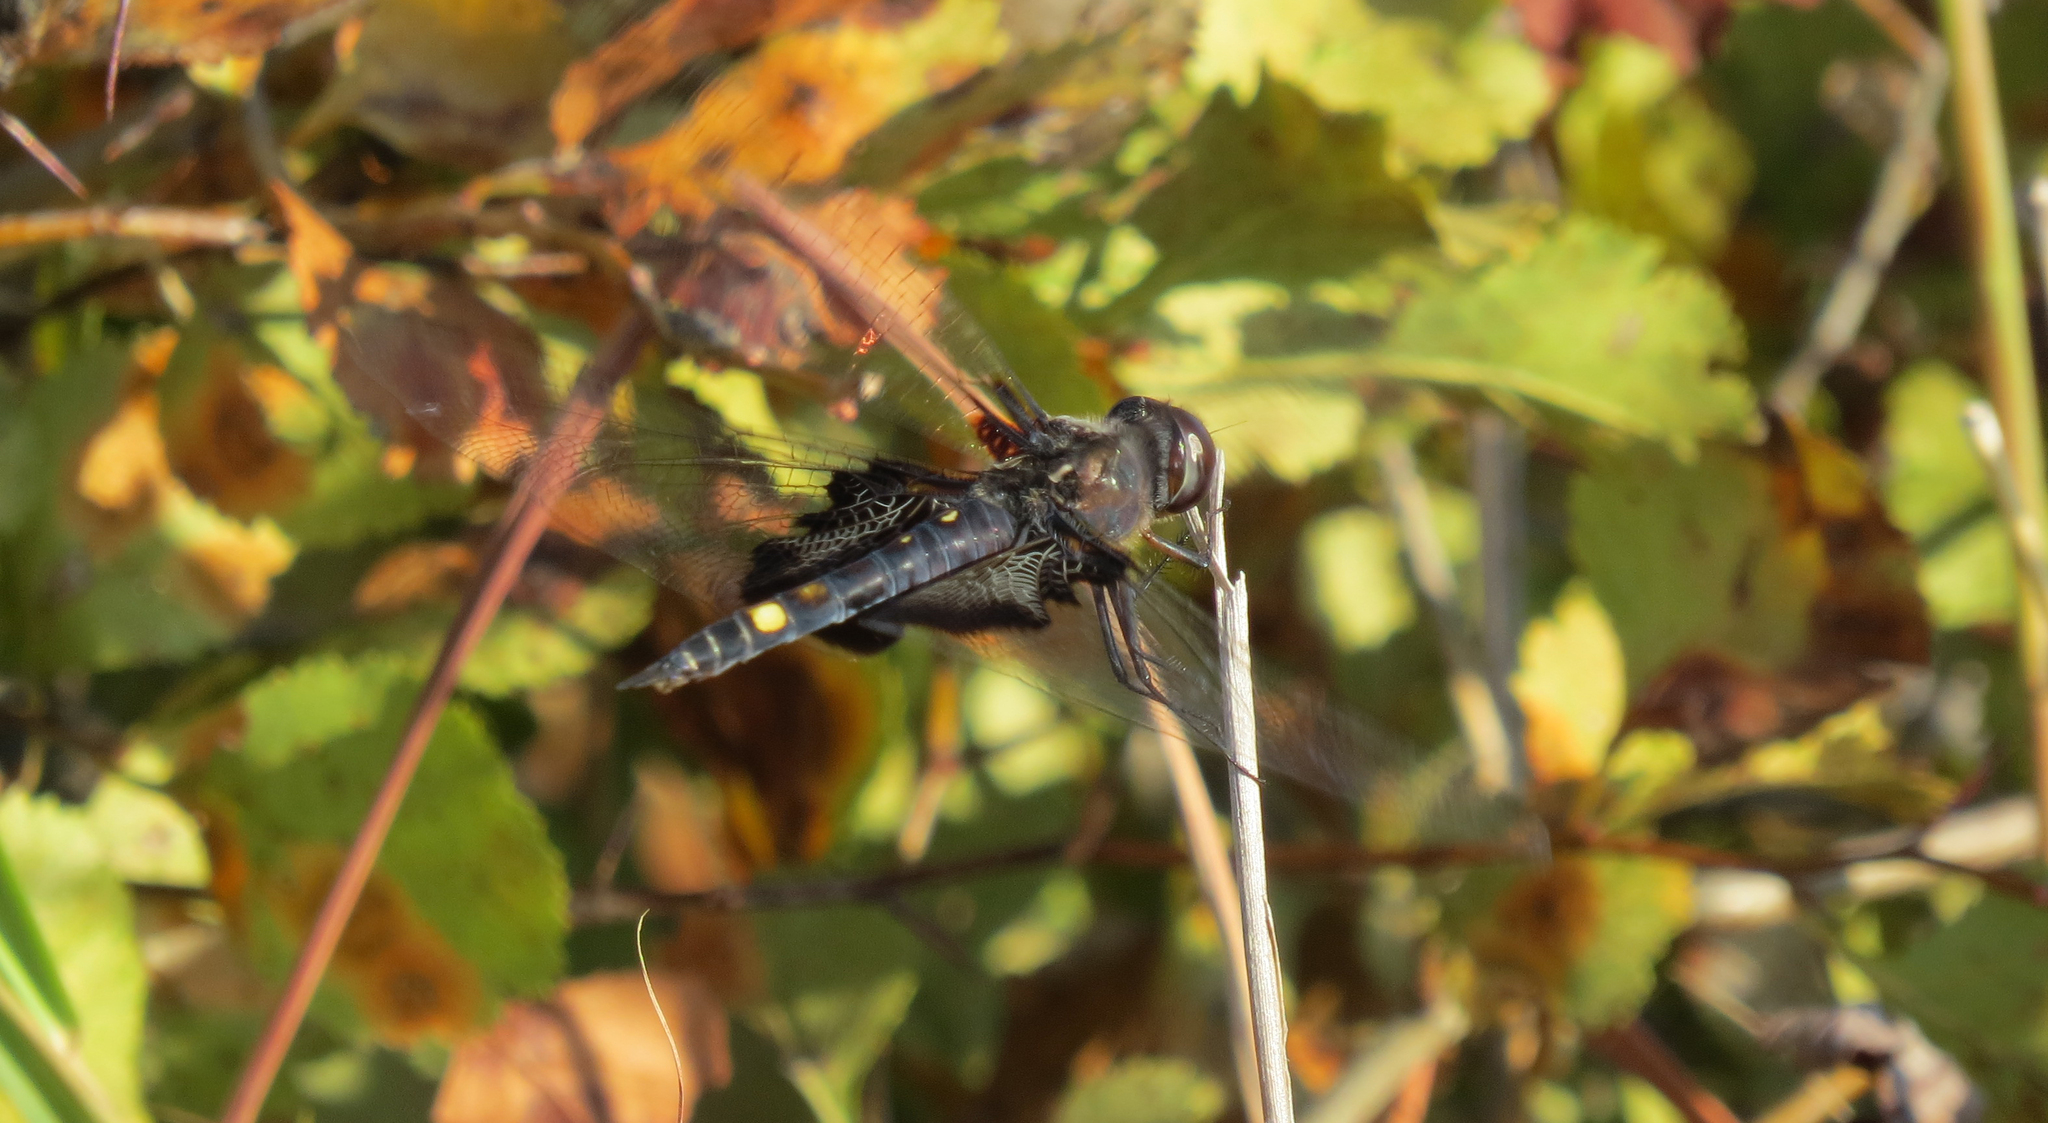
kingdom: Animalia
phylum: Arthropoda
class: Insecta
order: Odonata
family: Libellulidae
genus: Tramea
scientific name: Tramea lacerata
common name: Black saddlebags
